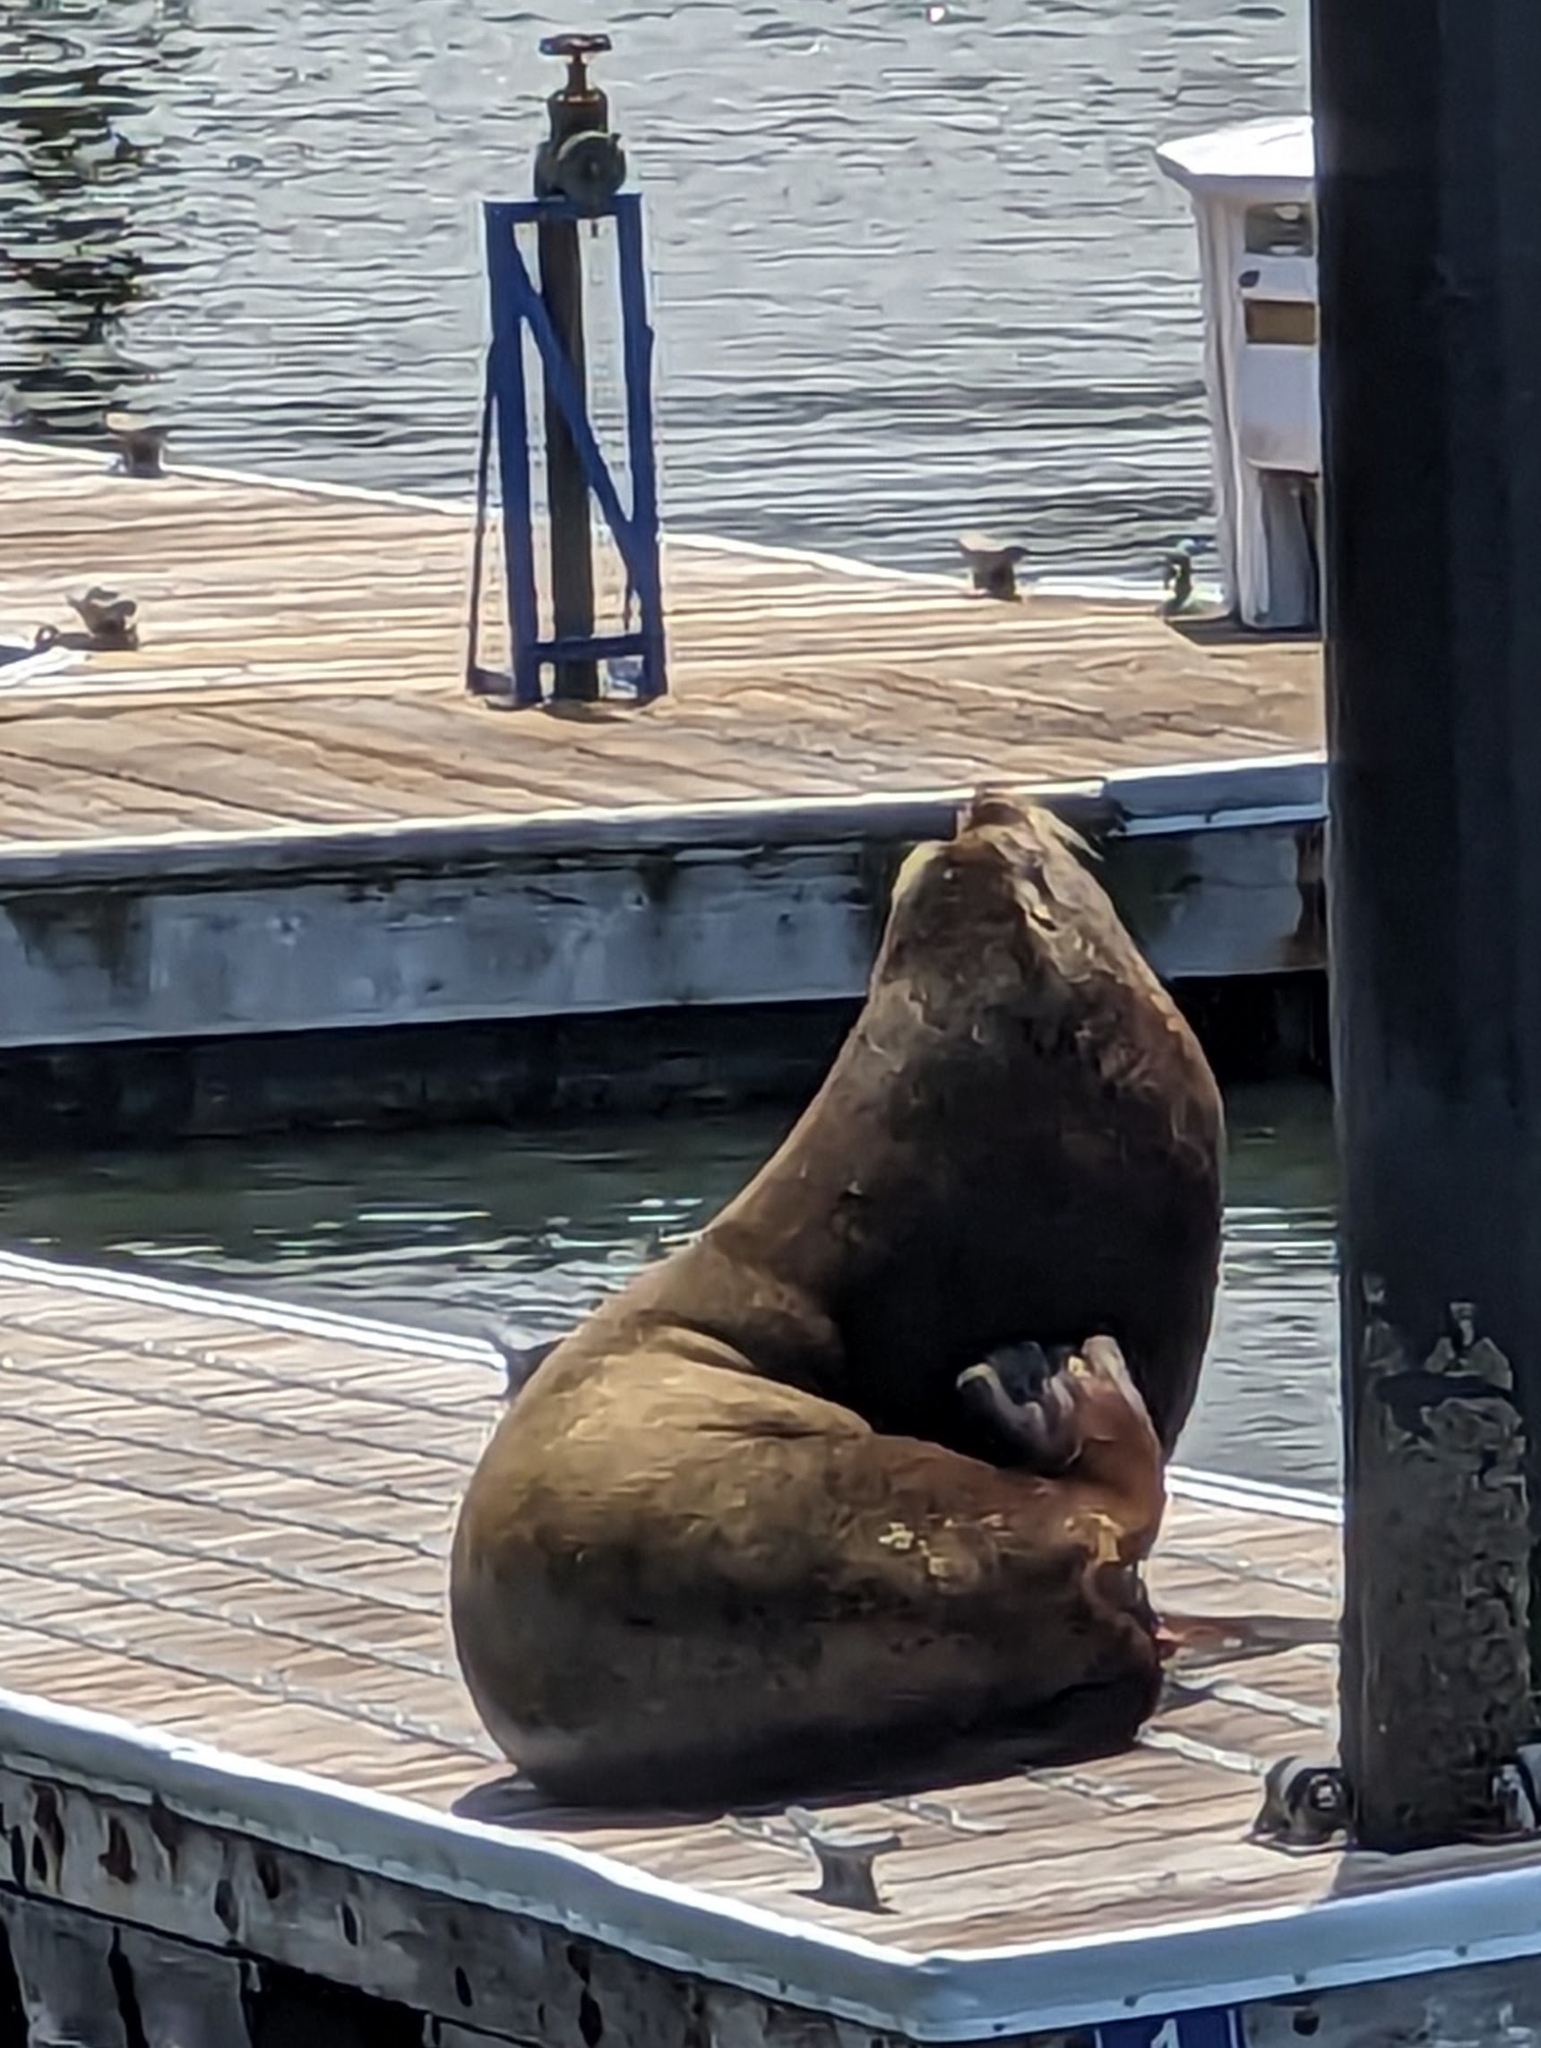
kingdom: Animalia
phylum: Chordata
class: Mammalia
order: Carnivora
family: Otariidae
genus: Zalophus
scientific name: Zalophus californianus
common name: California sea lion
